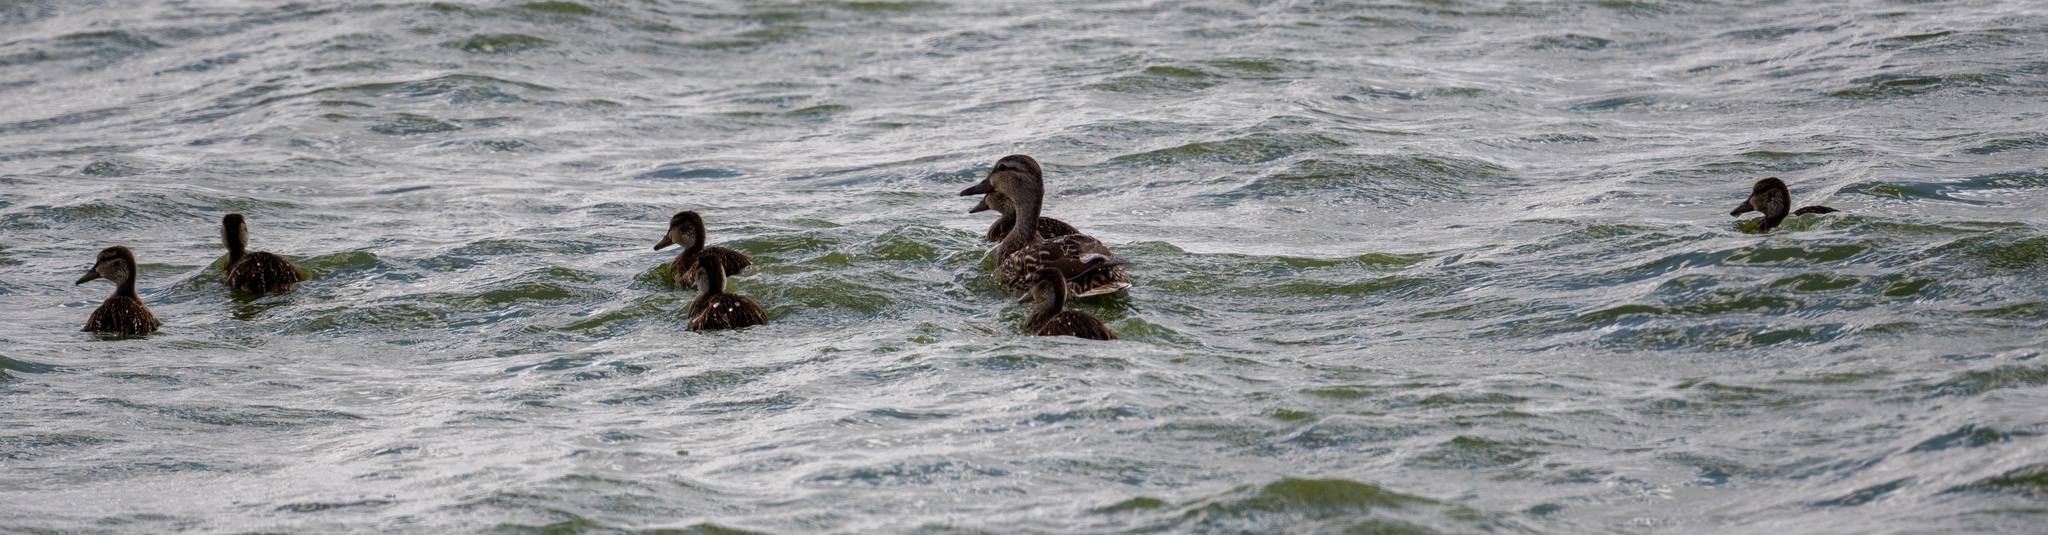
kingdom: Animalia
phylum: Chordata
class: Aves
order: Anseriformes
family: Anatidae
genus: Anas
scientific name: Anas platyrhynchos
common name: Mallard
